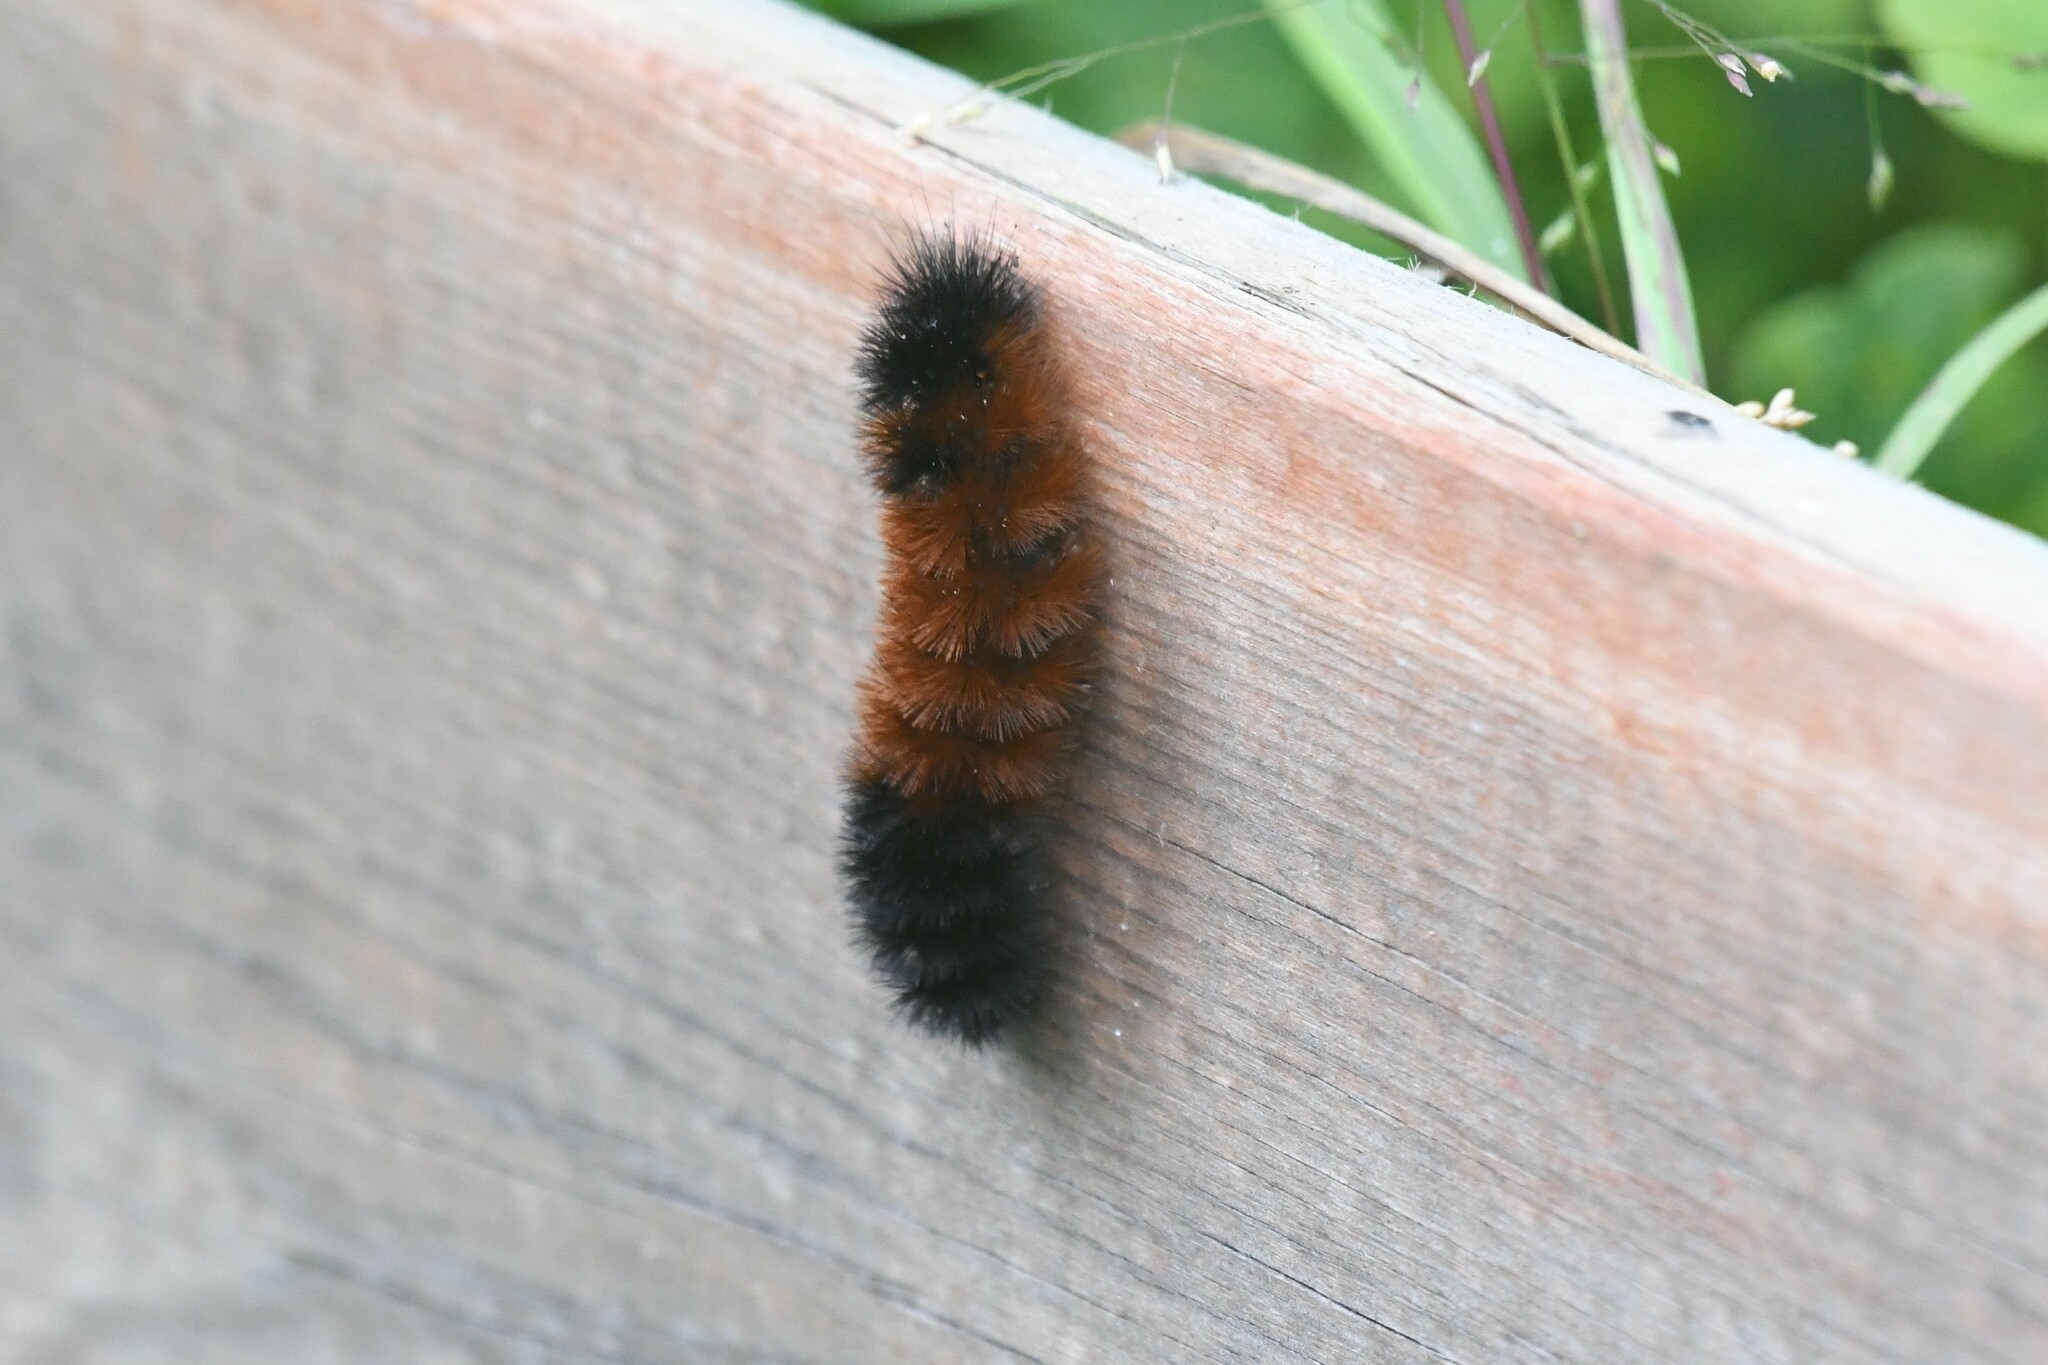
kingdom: Animalia
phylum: Arthropoda
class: Insecta
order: Lepidoptera
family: Erebidae
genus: Pyrrharctia
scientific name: Pyrrharctia isabella
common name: Isabella tiger moth
